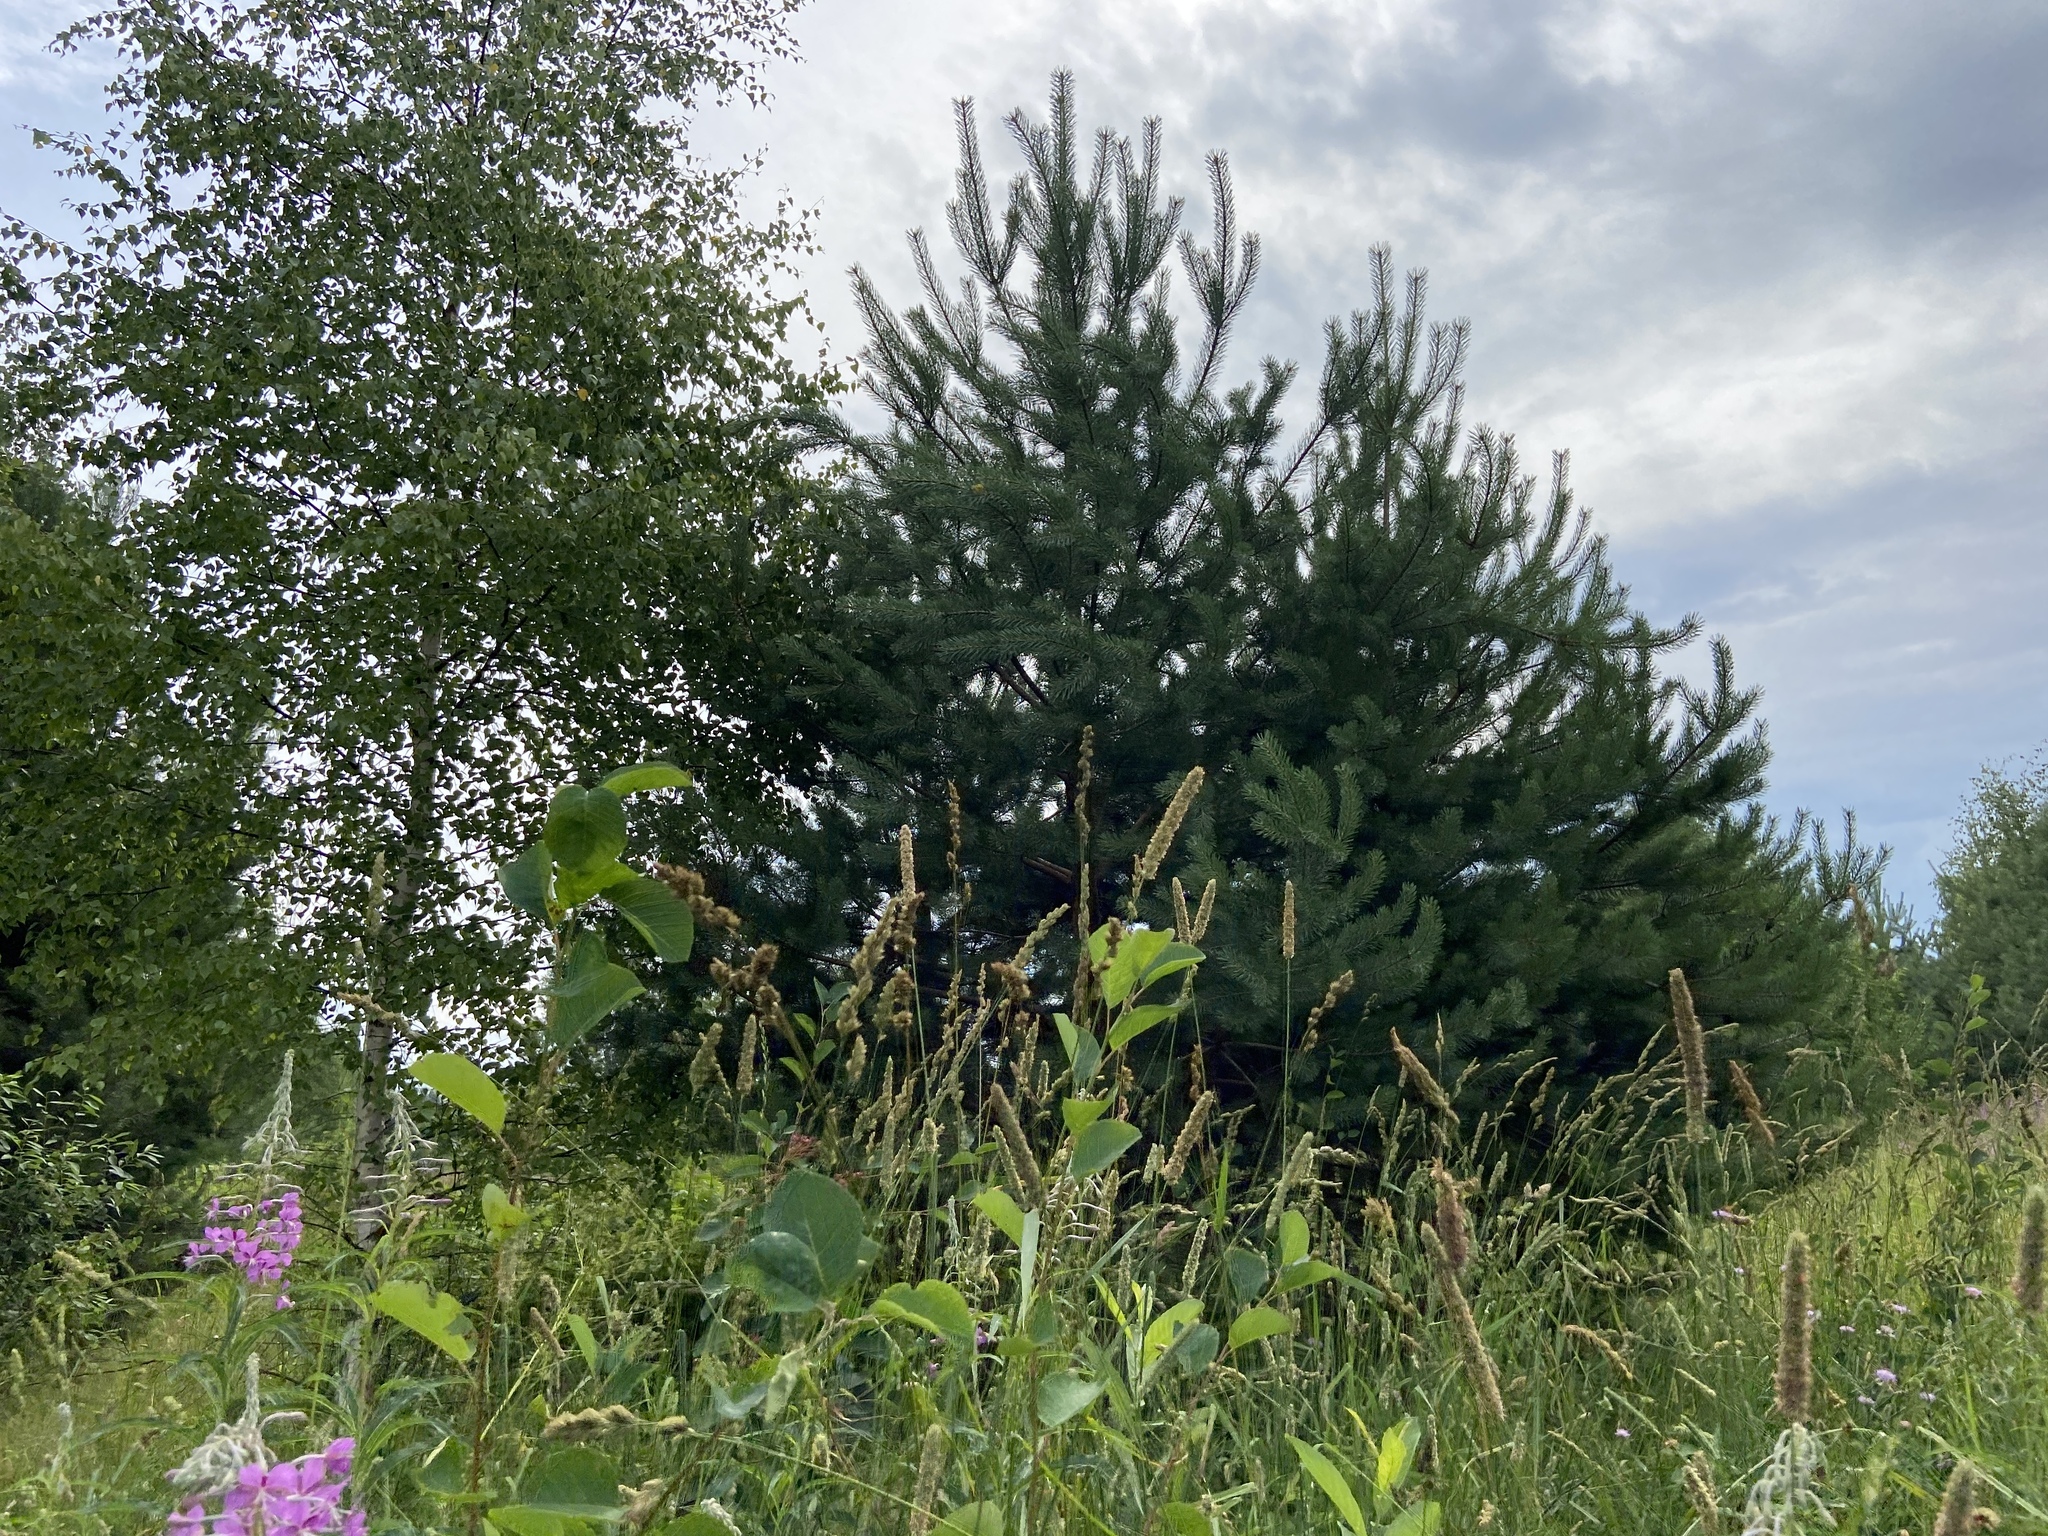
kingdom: Plantae
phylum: Tracheophyta
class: Liliopsida
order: Poales
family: Poaceae
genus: Phleum
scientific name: Phleum pratense
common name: Timothy grass
